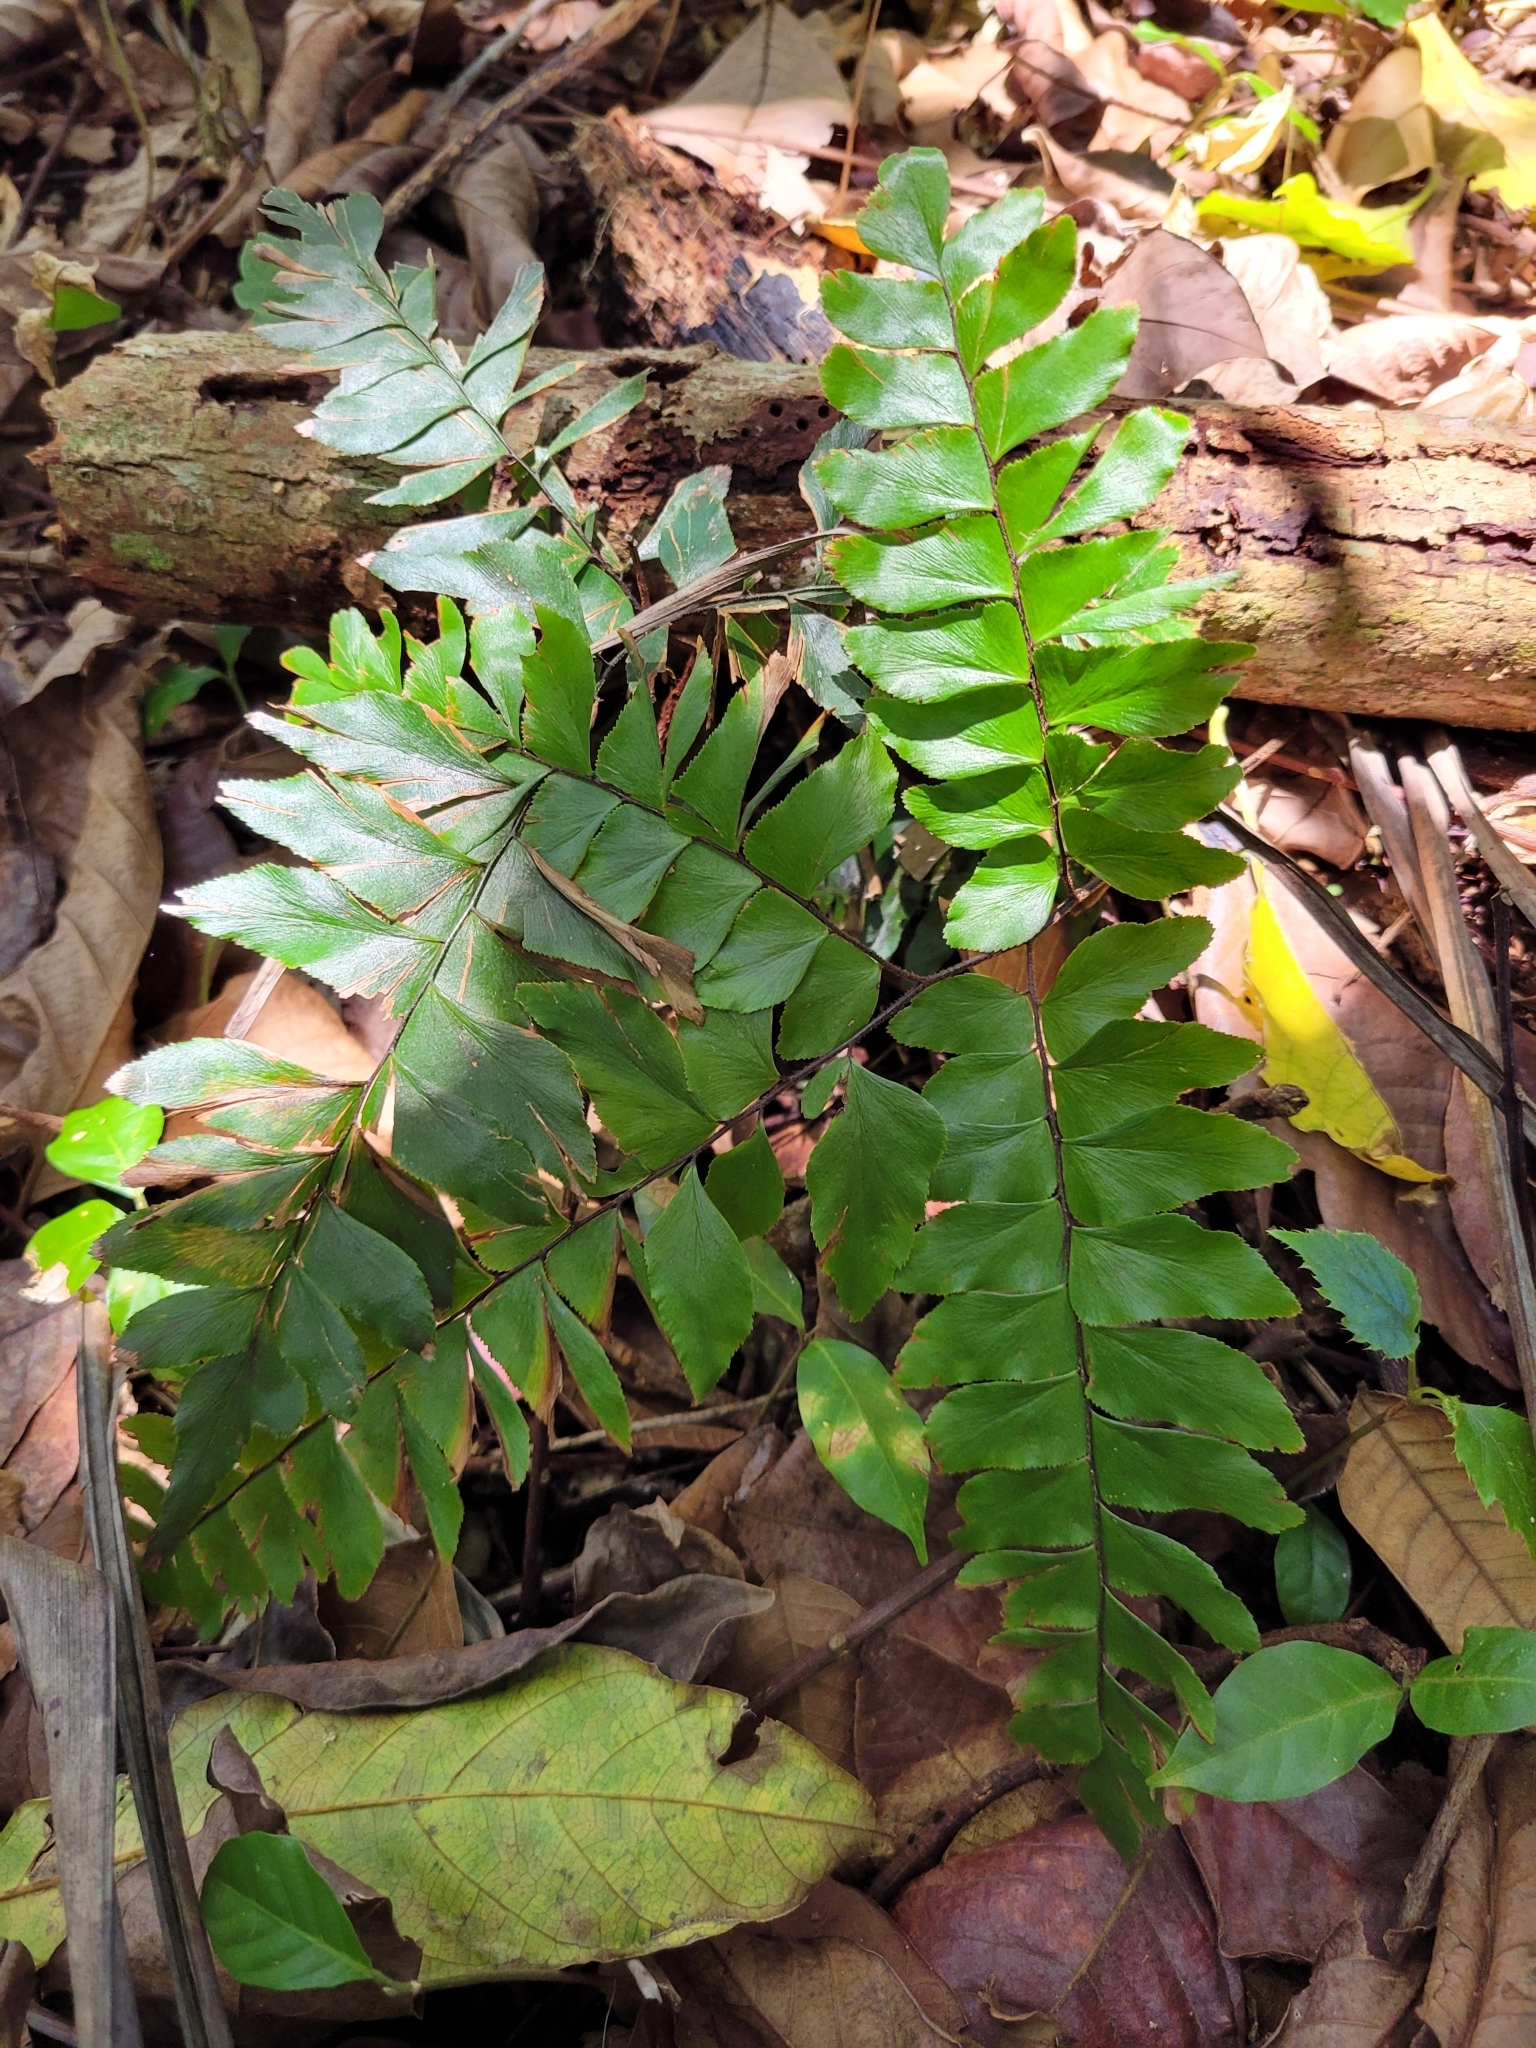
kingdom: Plantae
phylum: Tracheophyta
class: Polypodiopsida
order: Polypodiales
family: Pteridaceae
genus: Adiantum
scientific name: Adiantum latifolium
